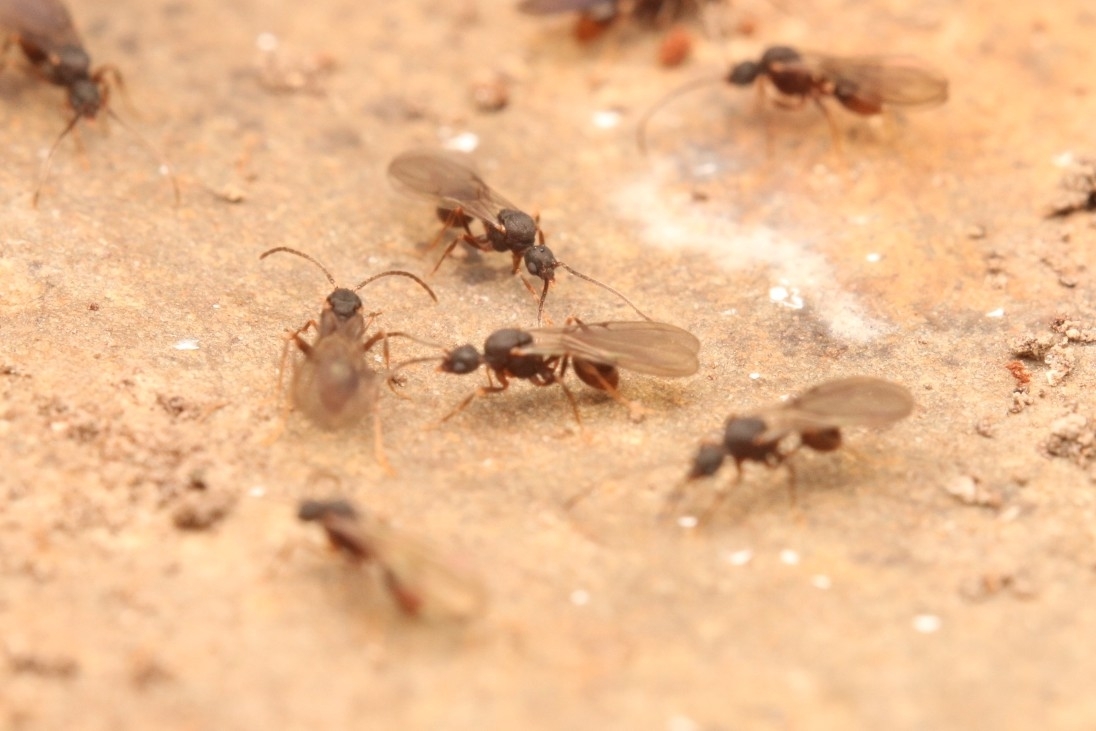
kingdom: Animalia
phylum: Arthropoda
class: Insecta
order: Hymenoptera
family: Formicidae
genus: Strumigenys
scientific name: Strumigenys pergandei
